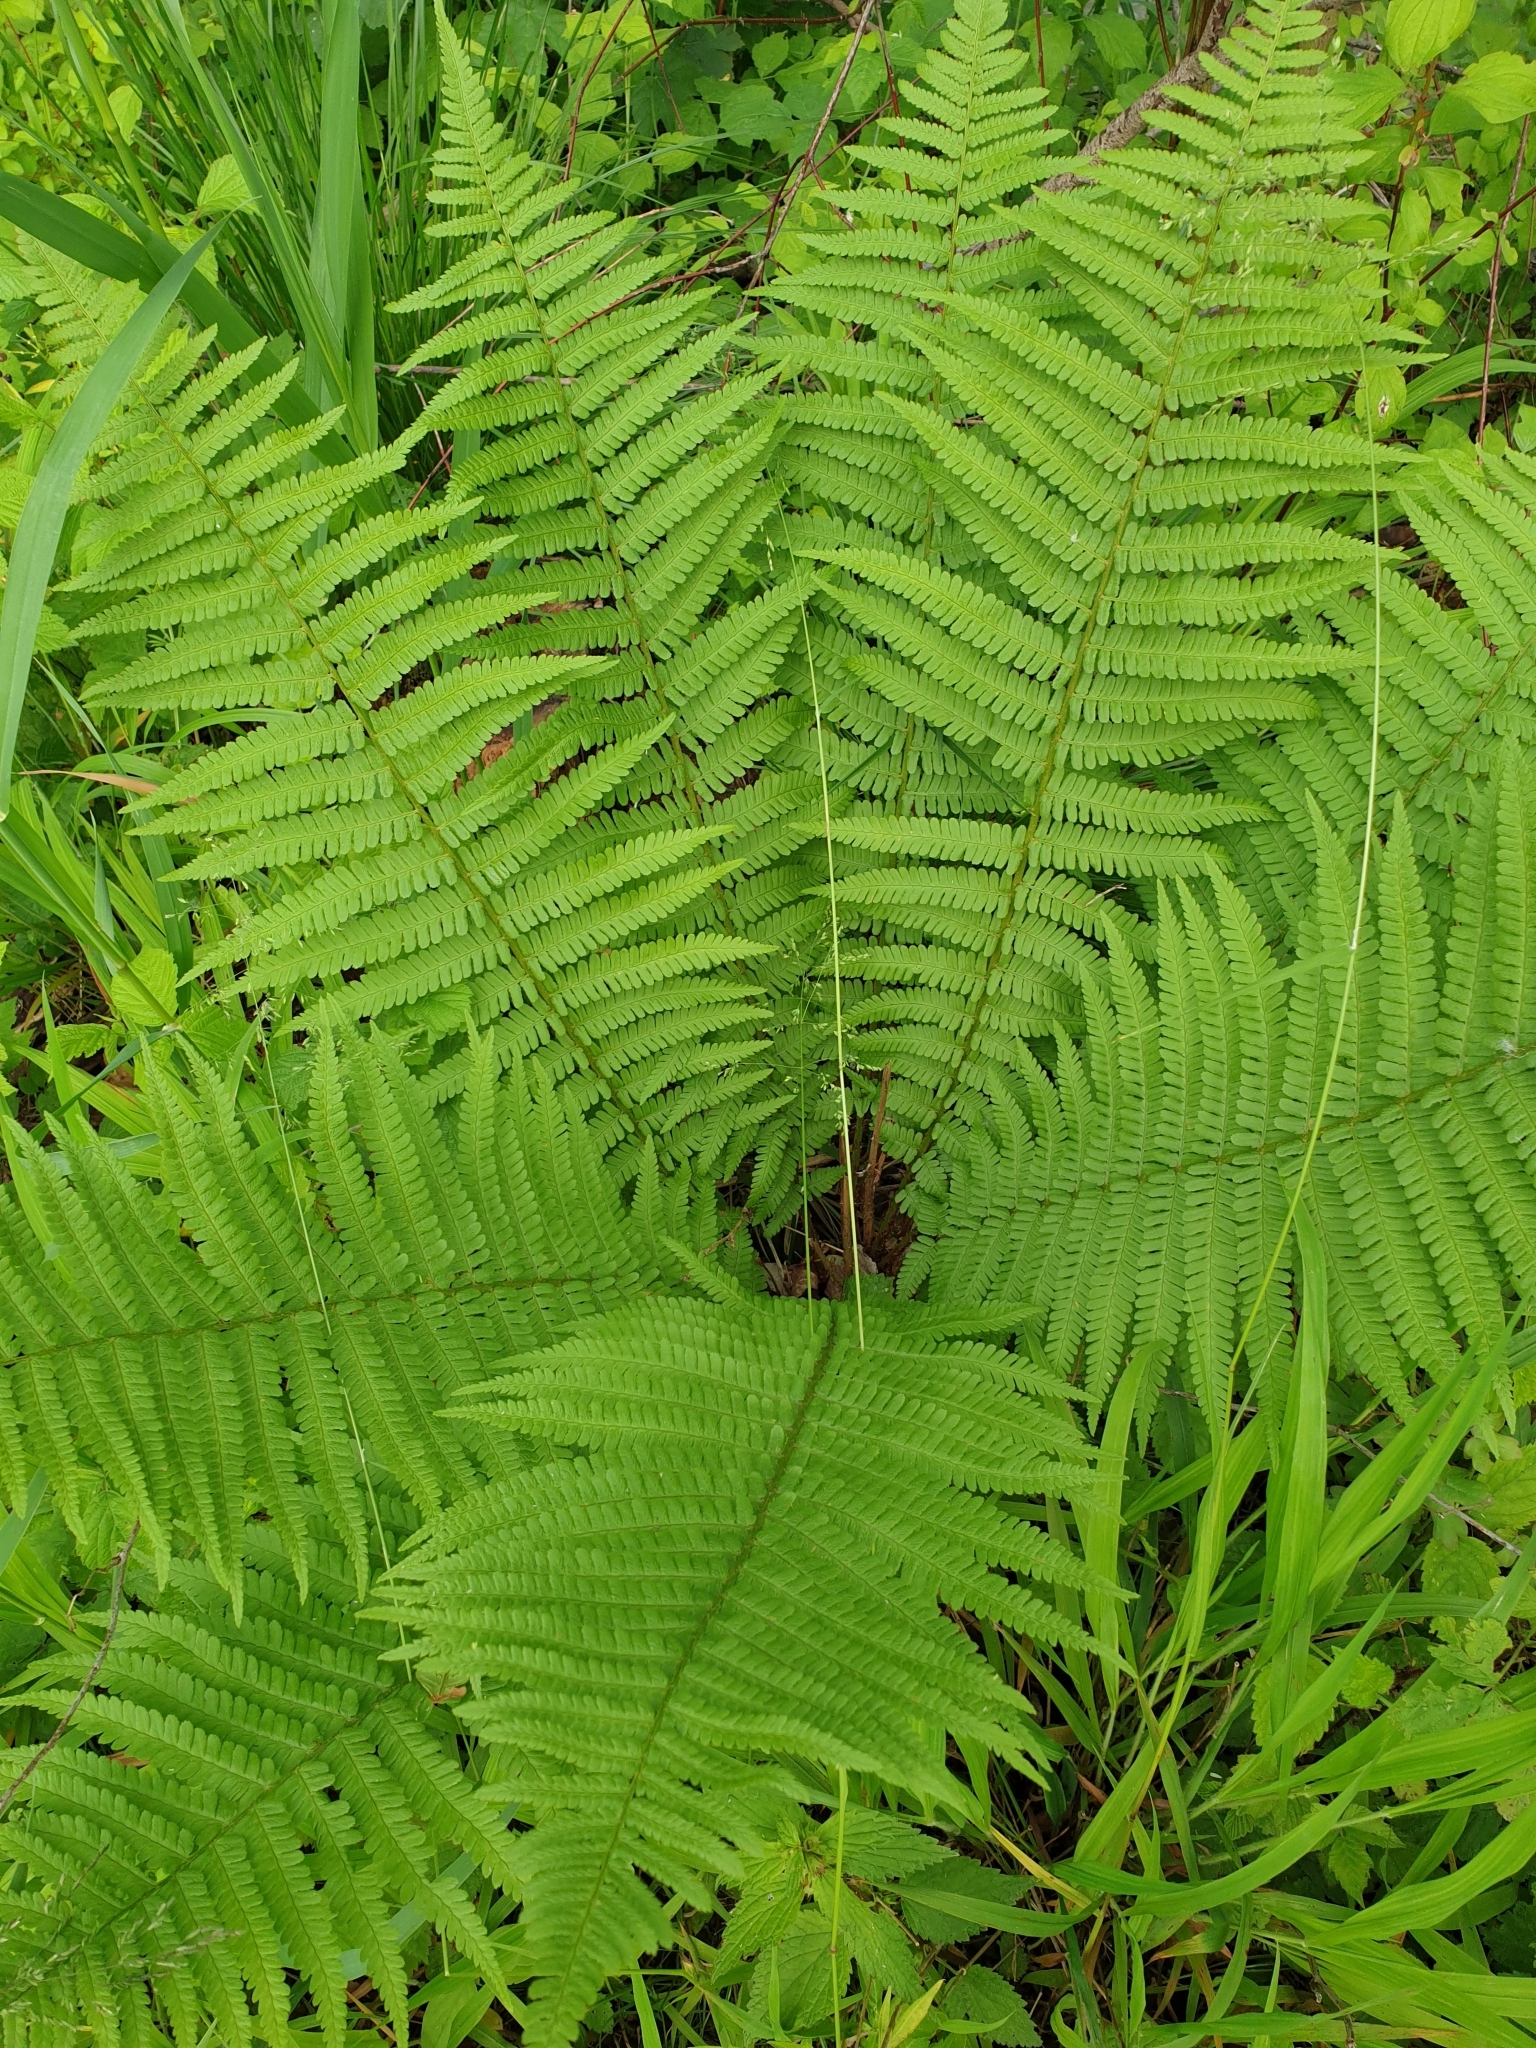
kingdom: Plantae
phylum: Tracheophyta
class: Polypodiopsida
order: Polypodiales
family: Dryopteridaceae
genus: Dryopteris
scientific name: Dryopteris filix-mas
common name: Male fern
